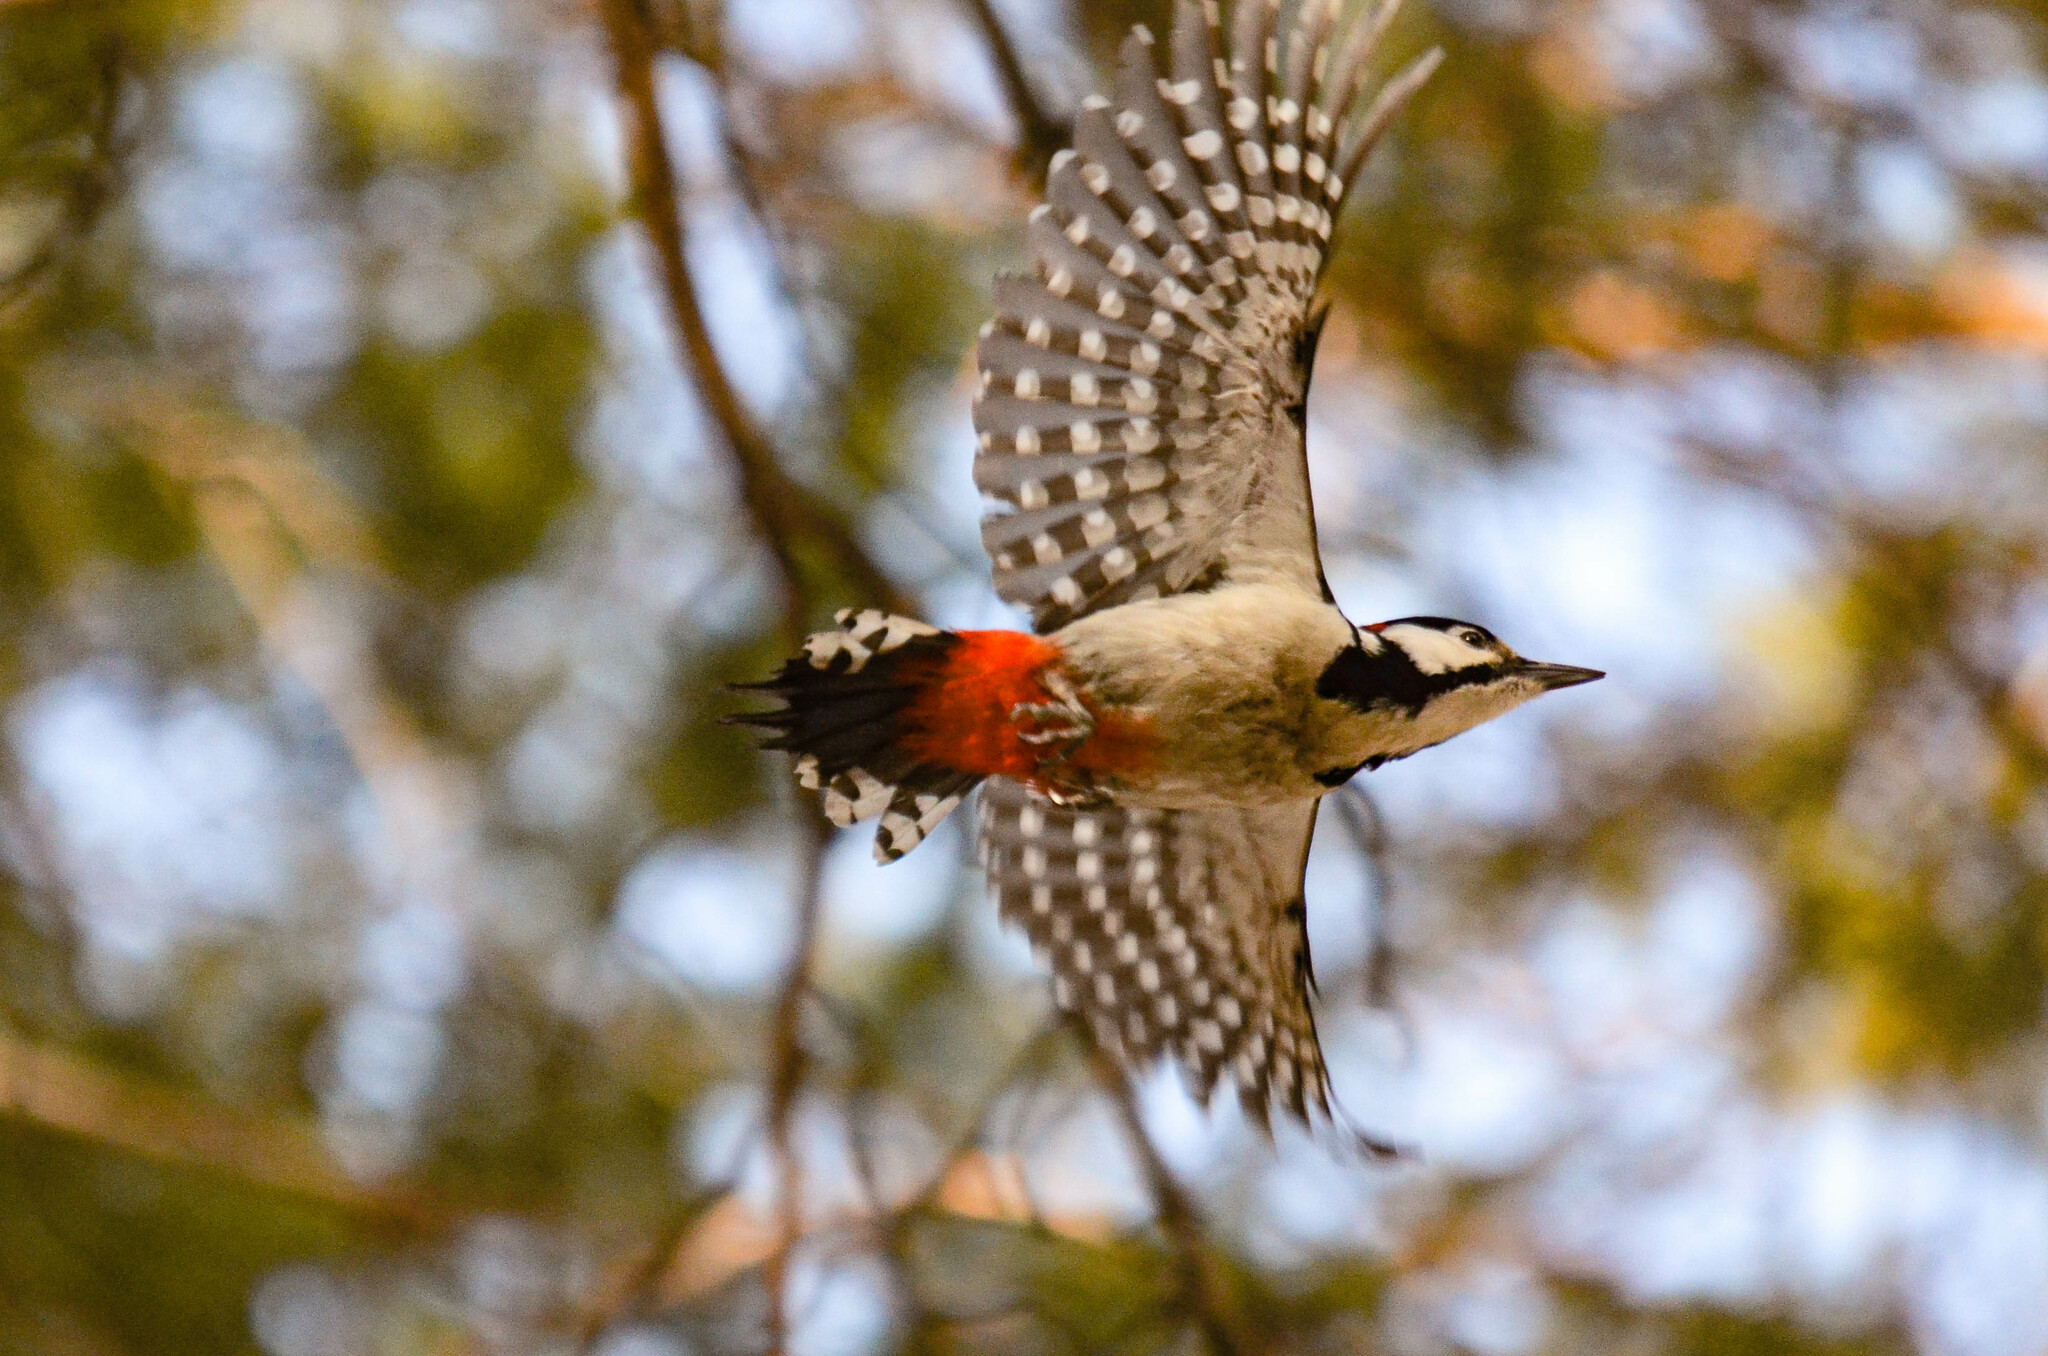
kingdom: Animalia
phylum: Chordata
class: Aves
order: Piciformes
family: Picidae
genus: Dendrocopos
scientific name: Dendrocopos major
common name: Great spotted woodpecker
